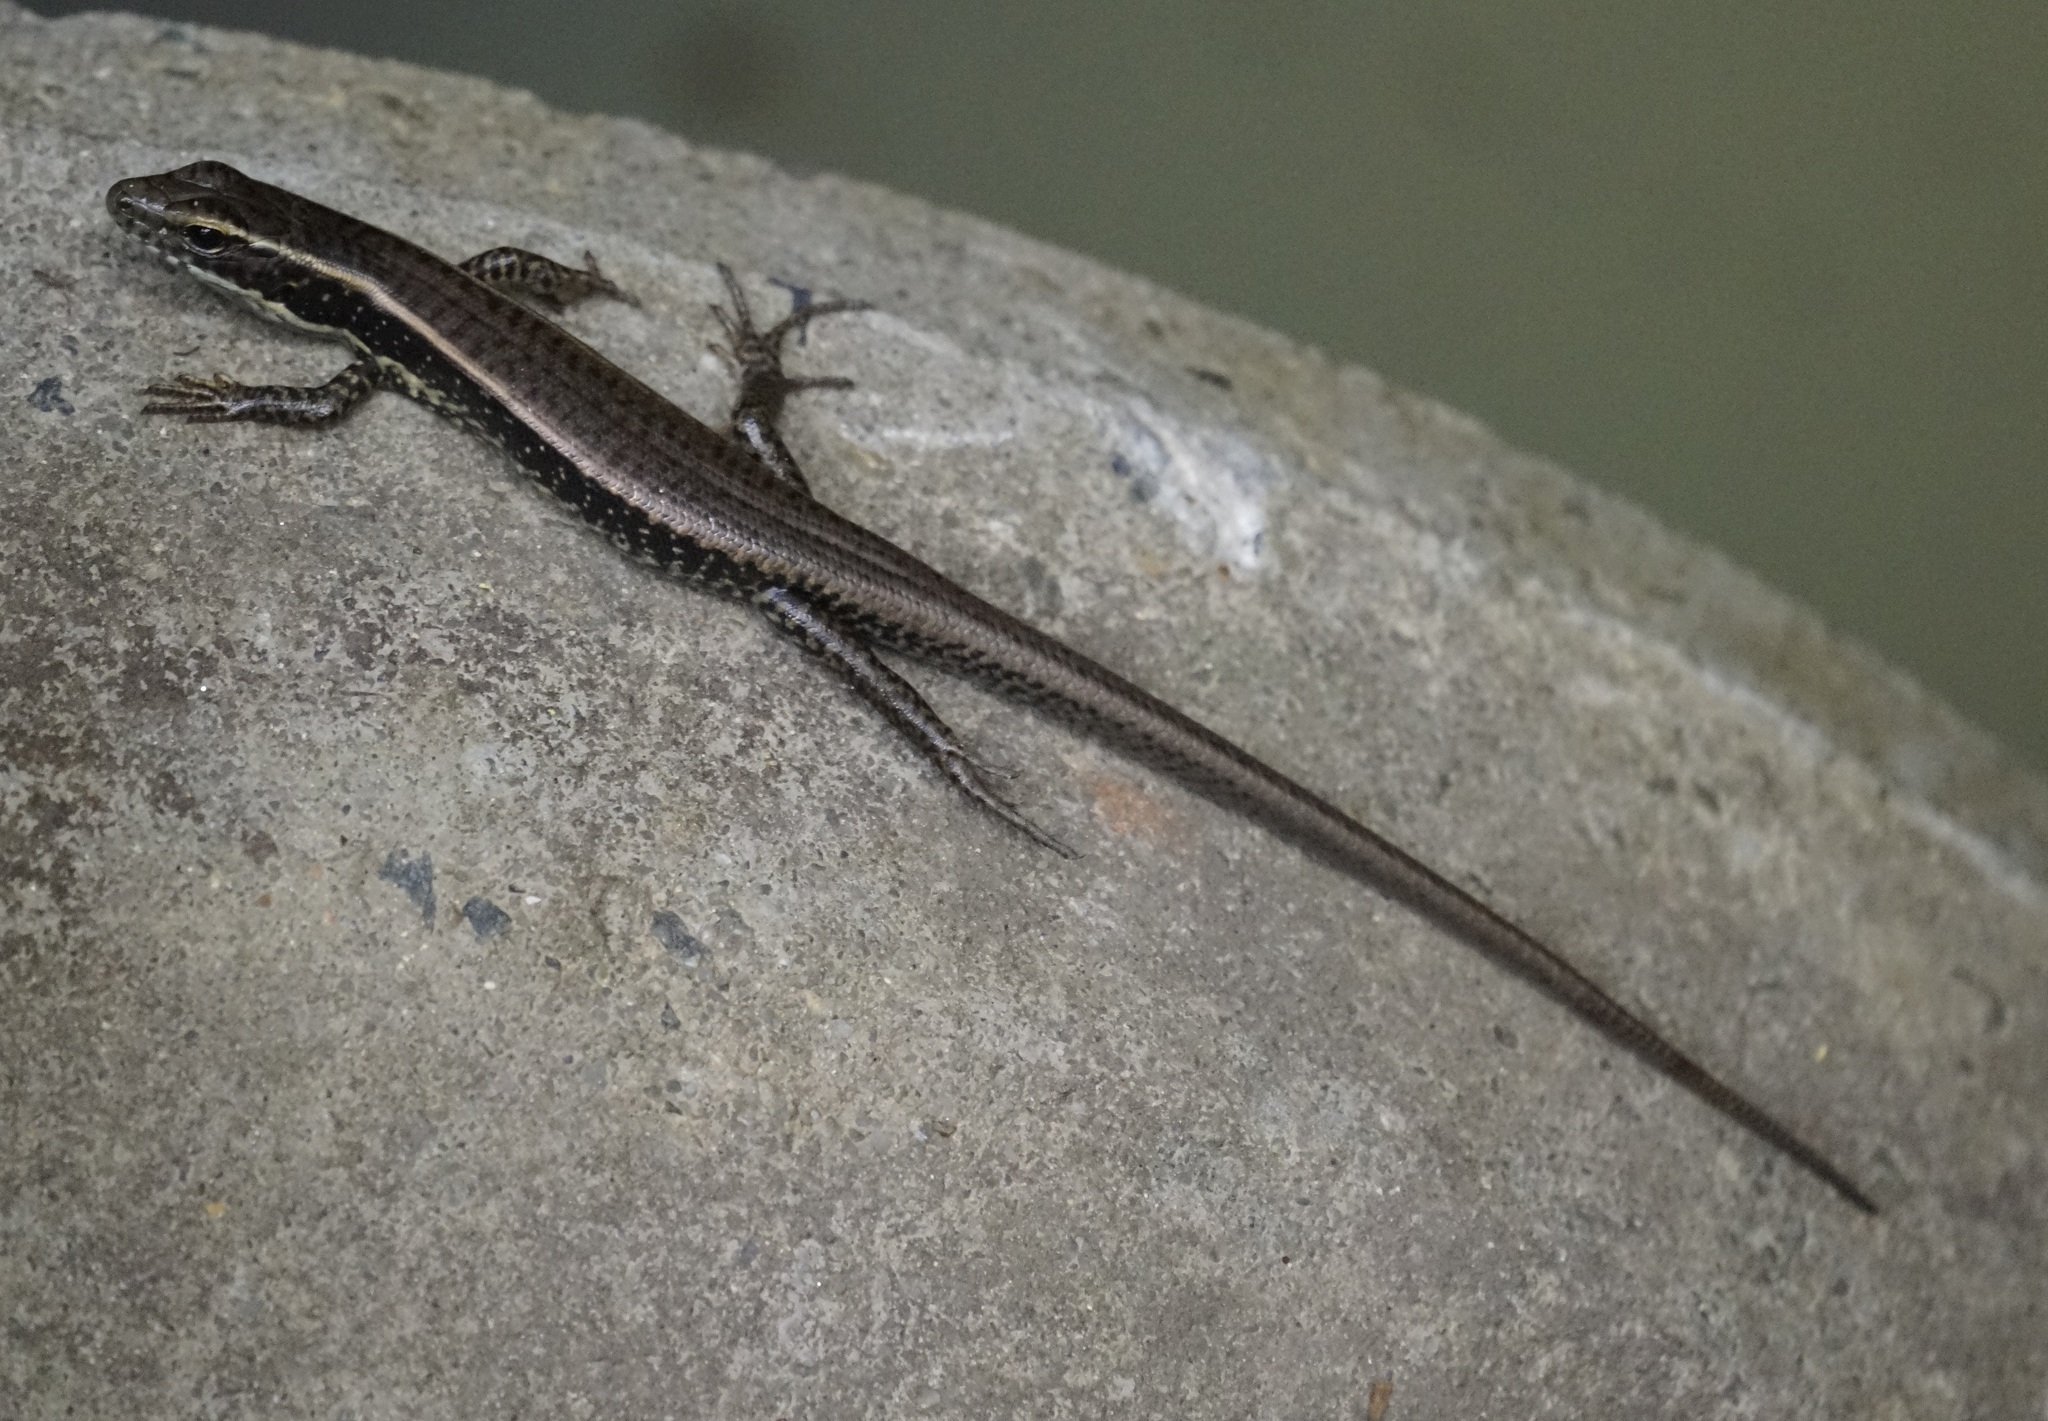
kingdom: Animalia
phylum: Chordata
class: Squamata
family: Scincidae
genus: Eulamprus
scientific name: Eulamprus quoyii
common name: Eastern water skink
